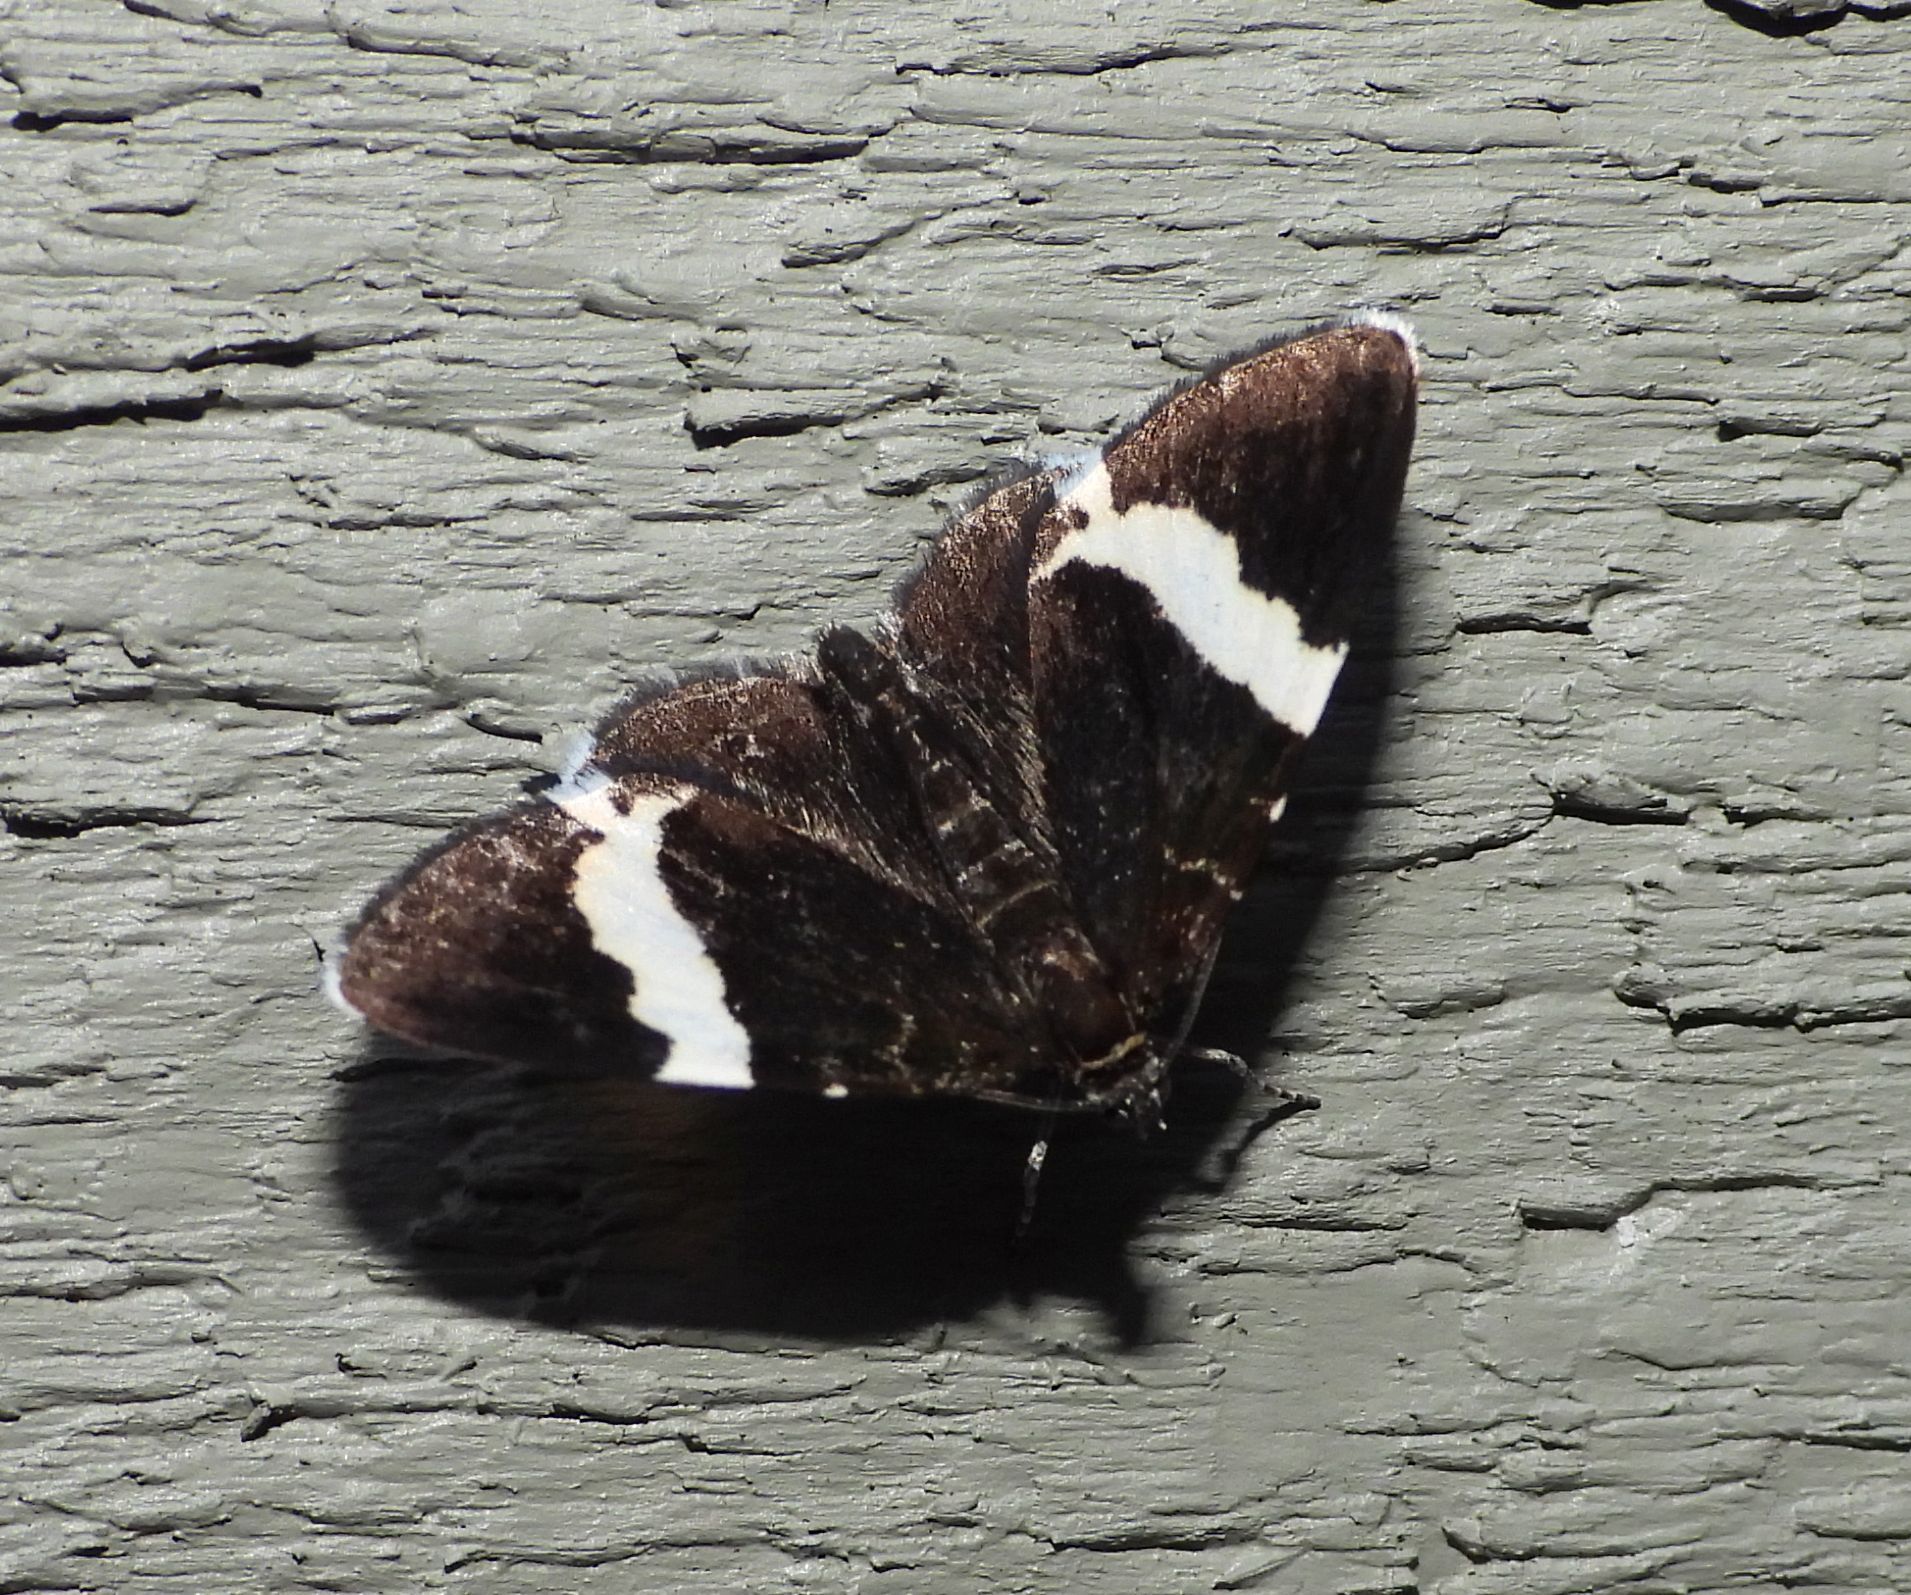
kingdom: Animalia
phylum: Arthropoda
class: Insecta
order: Lepidoptera
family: Geometridae
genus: Trichodezia
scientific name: Trichodezia albovittata
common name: White striped black
